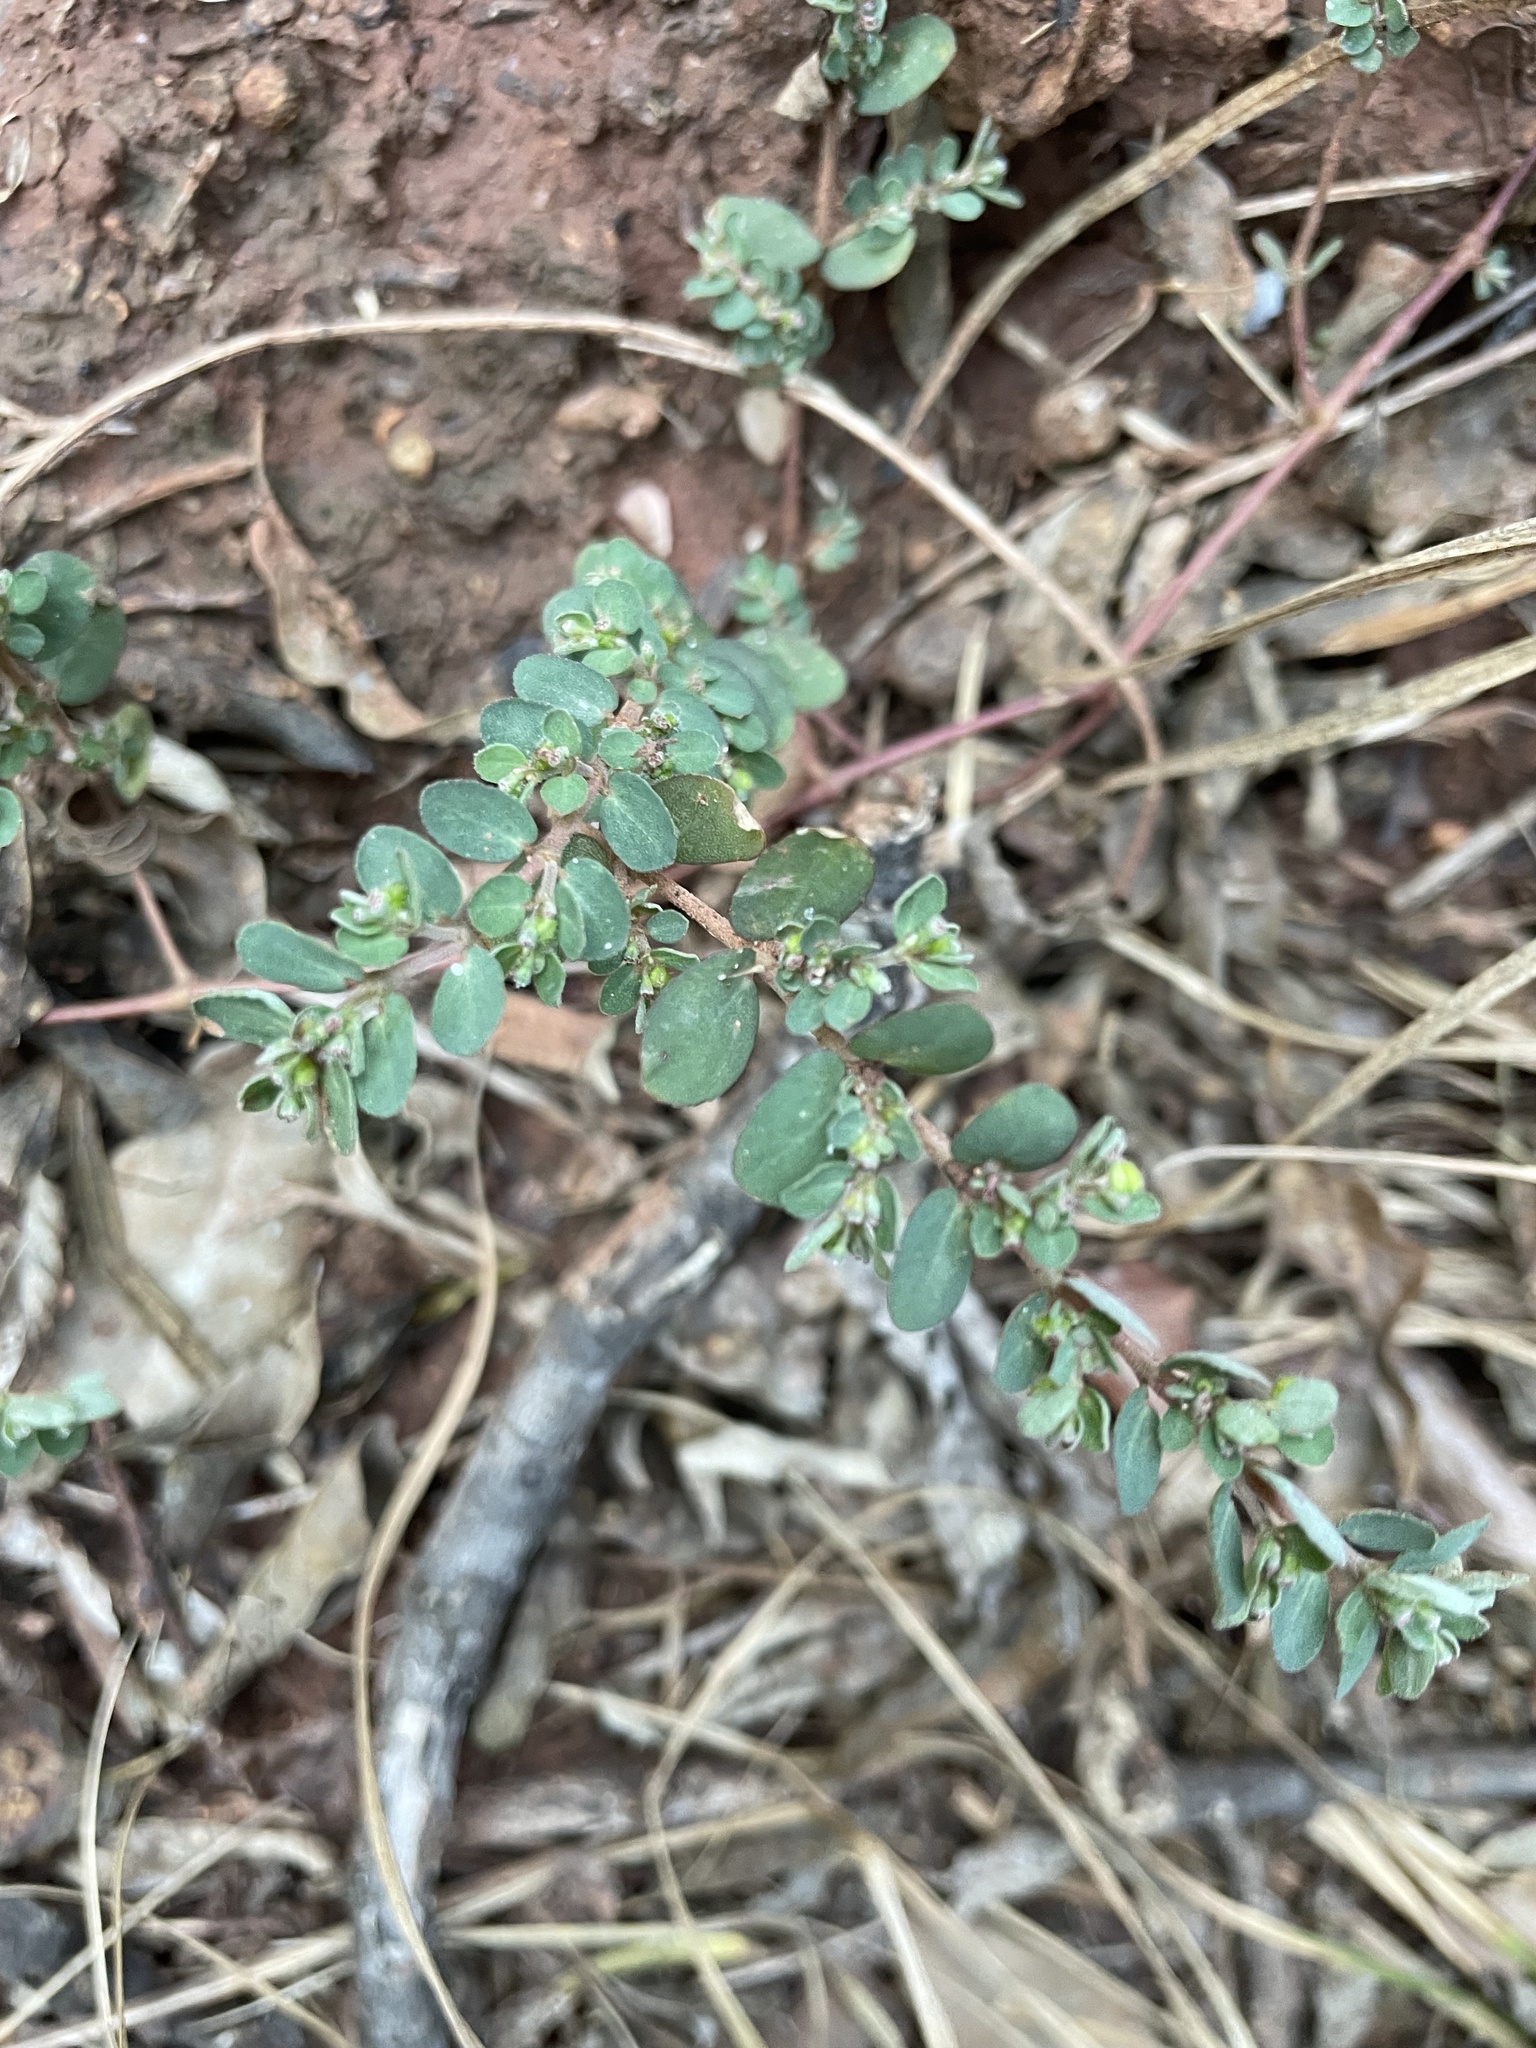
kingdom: Plantae
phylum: Tracheophyta
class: Magnoliopsida
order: Malpighiales
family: Euphorbiaceae
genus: Euphorbia
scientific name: Euphorbia prostrata
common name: Prostrate sandmat
